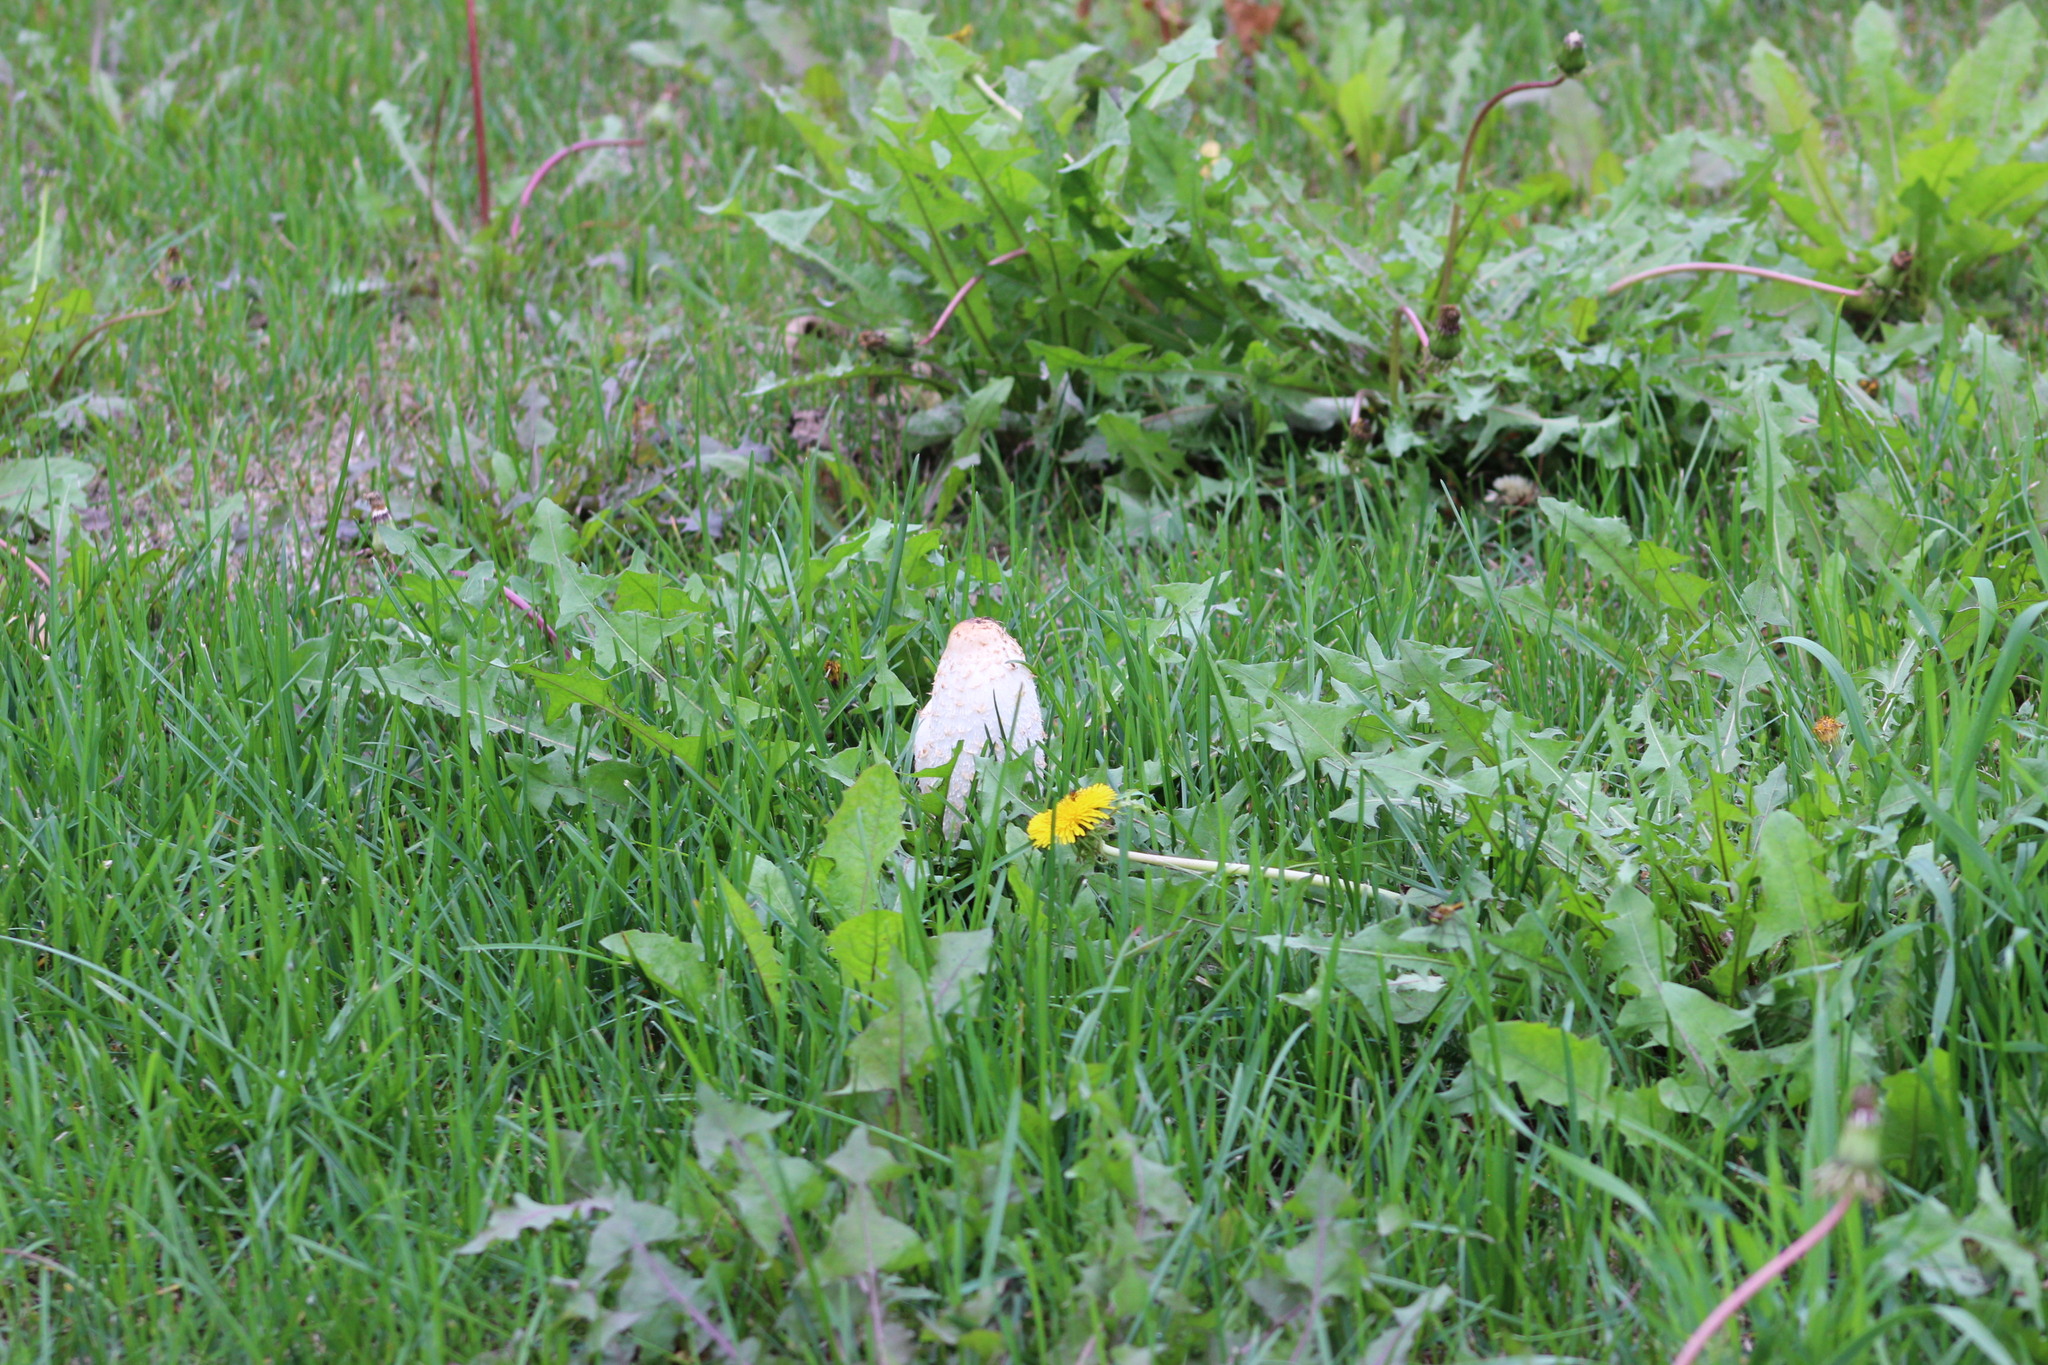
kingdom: Fungi
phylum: Basidiomycota
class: Agaricomycetes
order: Agaricales
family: Agaricaceae
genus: Coprinus
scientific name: Coprinus comatus
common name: Lawyer's wig
